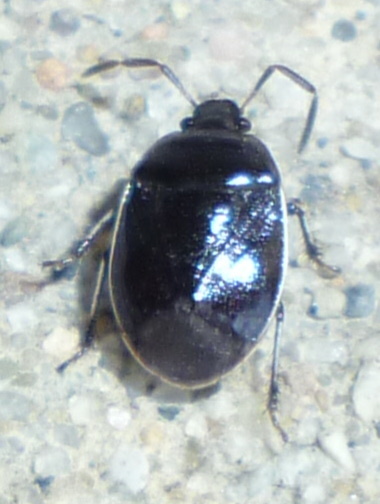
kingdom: Animalia
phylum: Arthropoda
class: Insecta
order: Hemiptera
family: Cydnidae
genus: Sehirus
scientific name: Sehirus cinctus
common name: White-margined burrower bug
